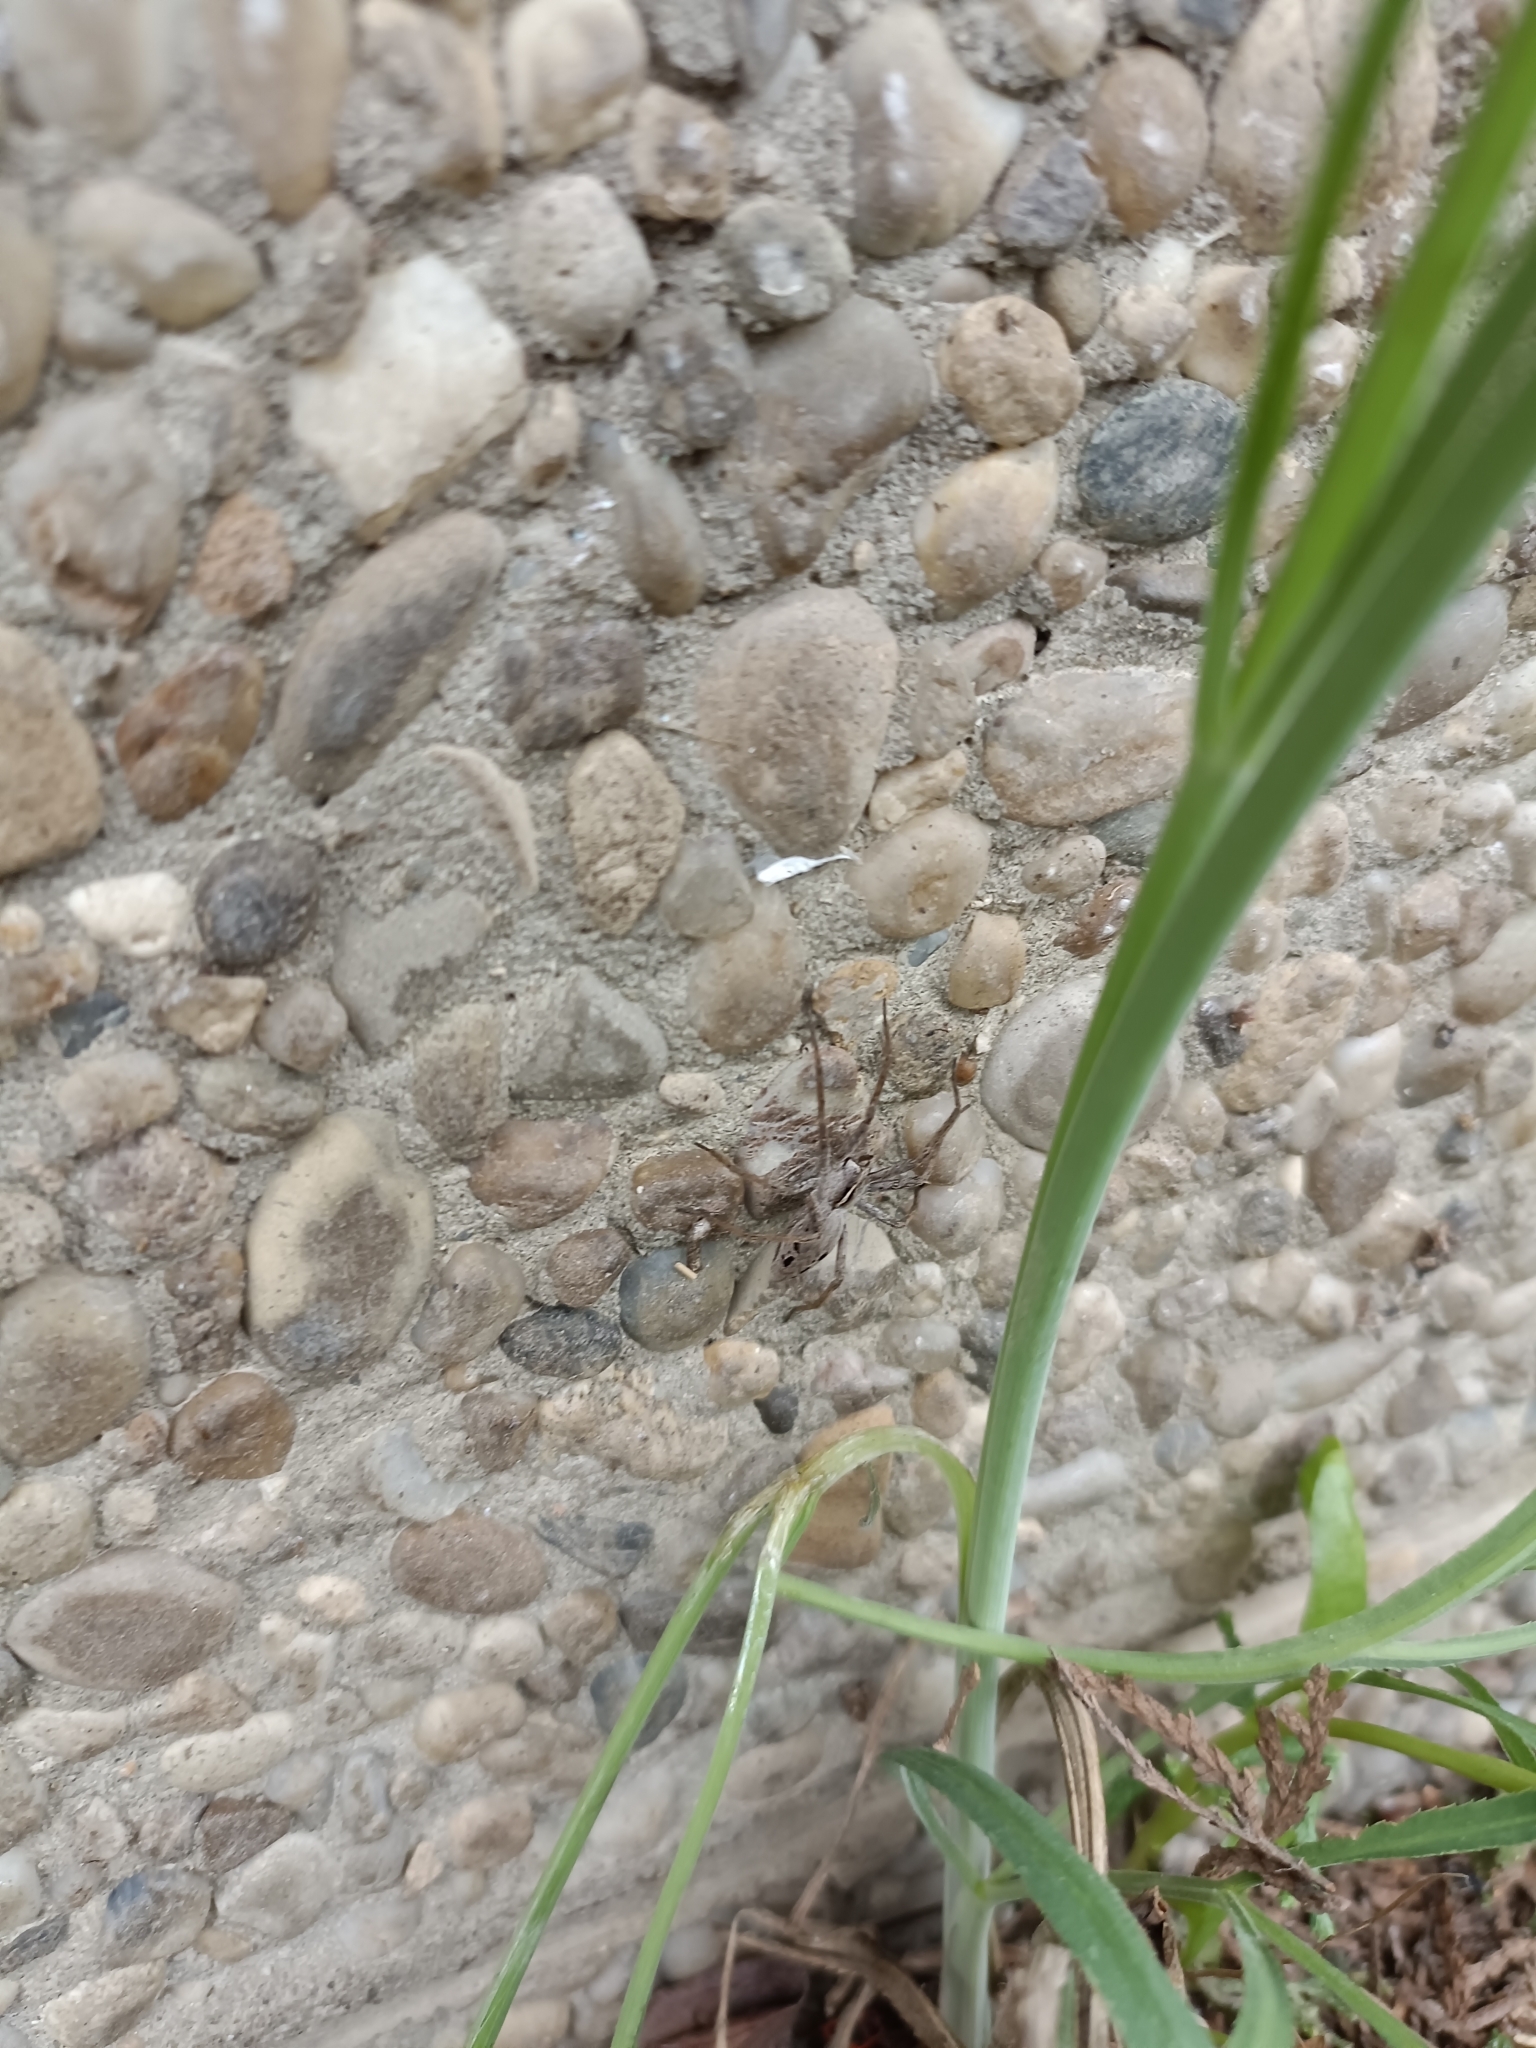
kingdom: Animalia
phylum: Arthropoda
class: Arachnida
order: Araneae
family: Pisauridae
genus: Pisaura
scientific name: Pisaura mirabilis
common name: Tent spider
